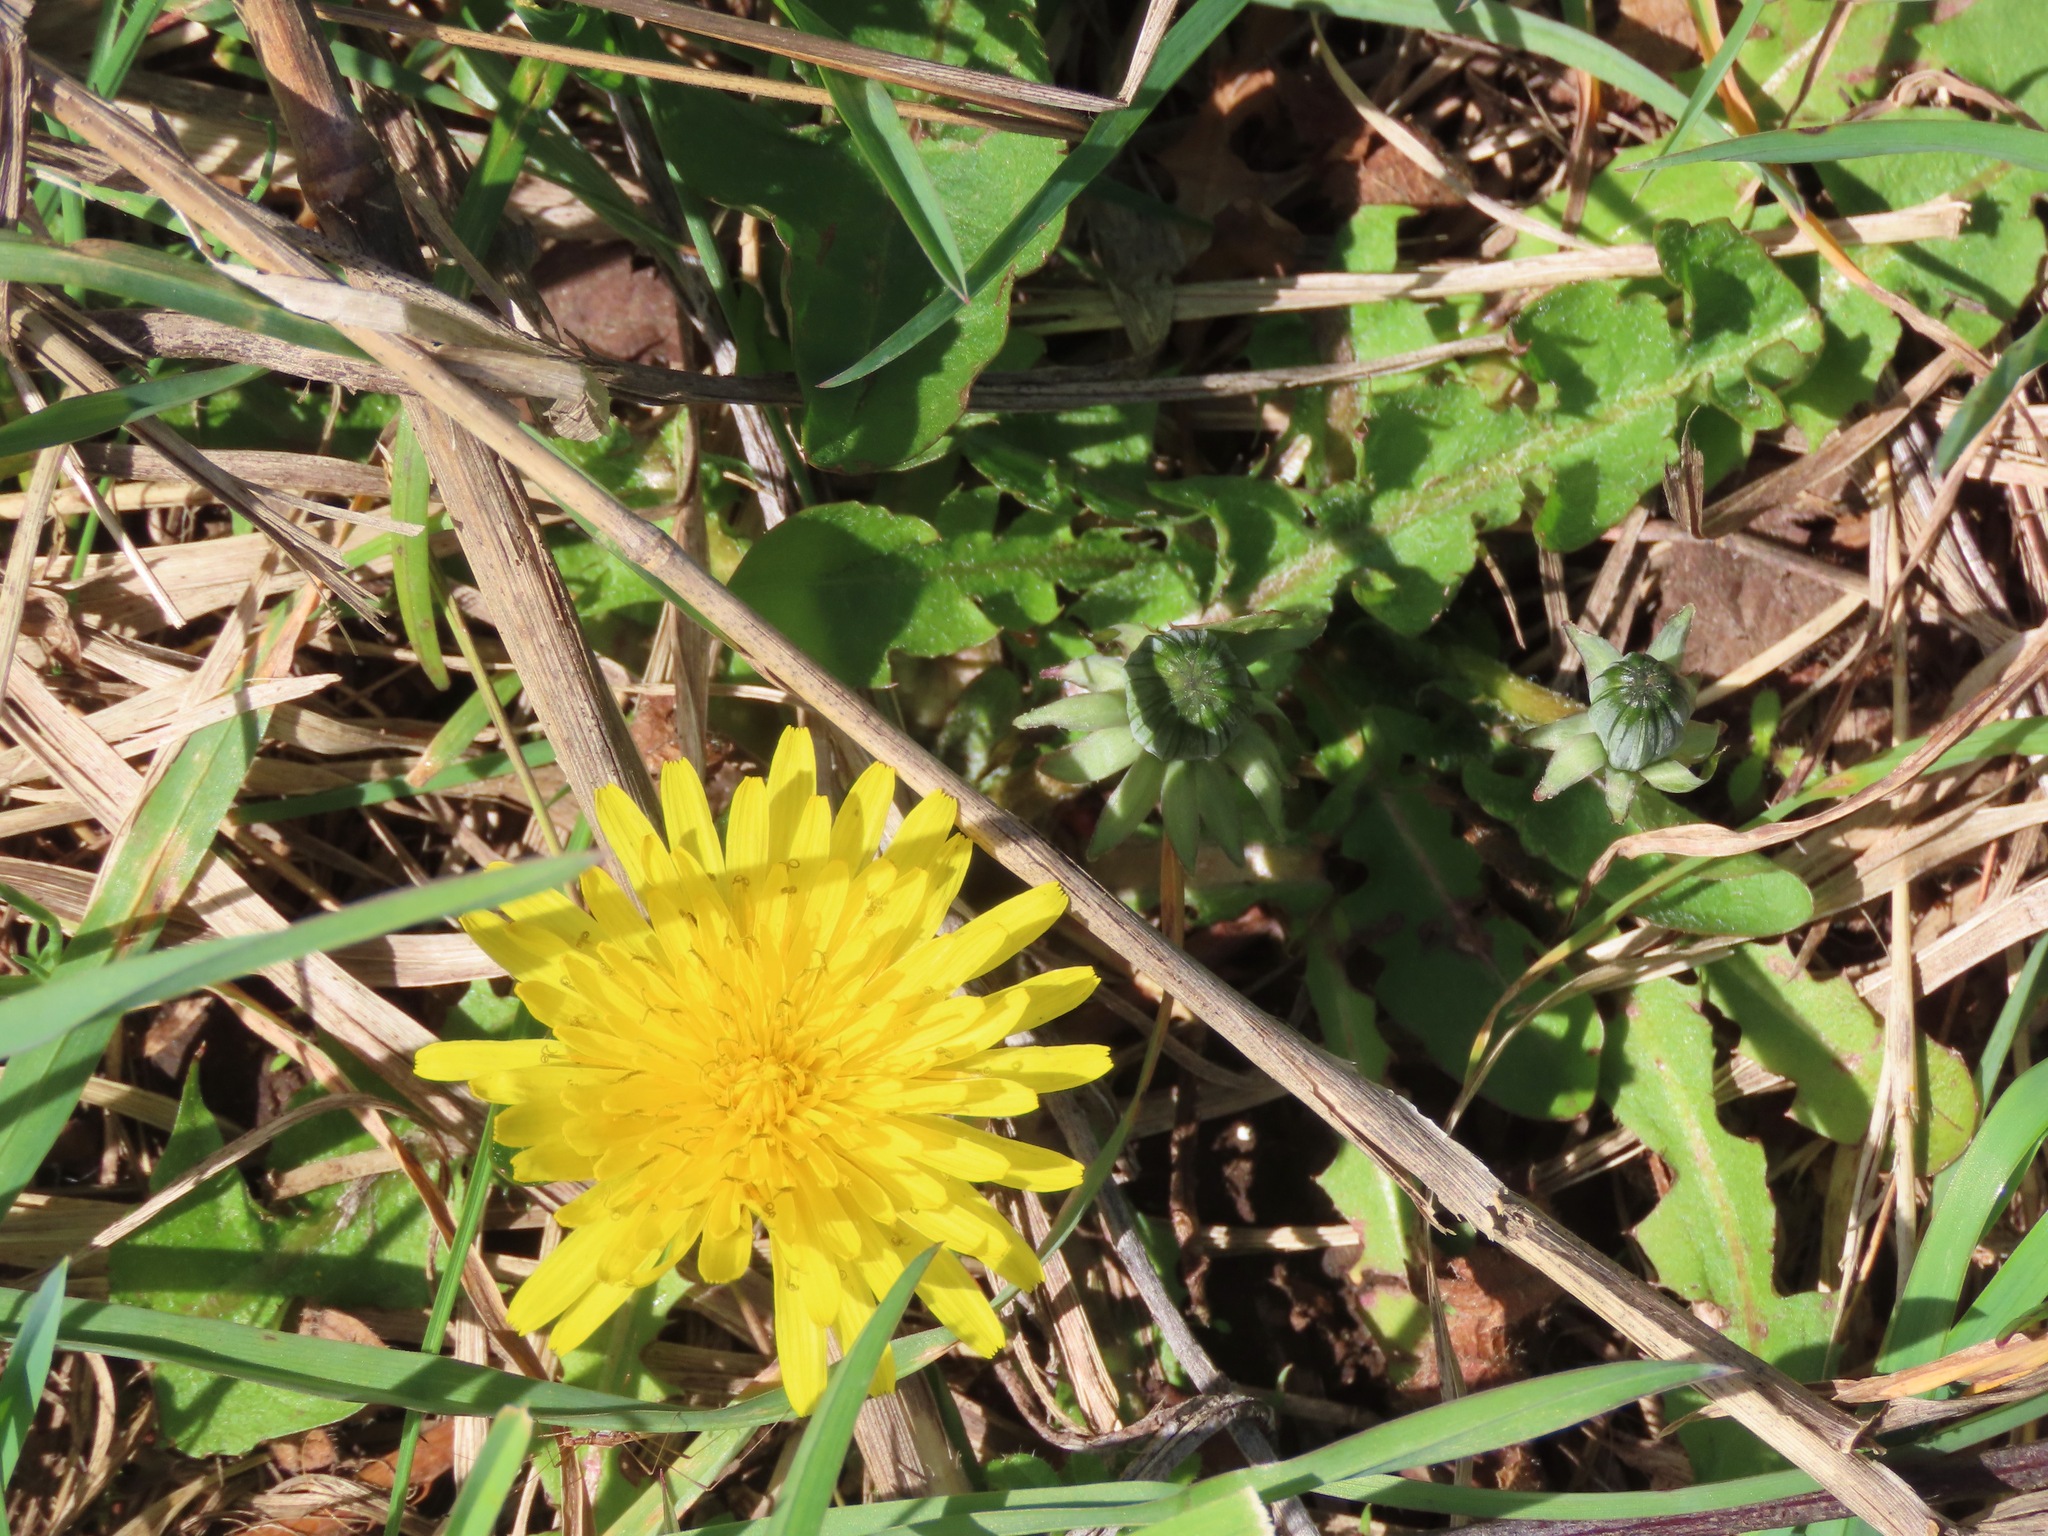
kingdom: Plantae
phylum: Tracheophyta
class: Magnoliopsida
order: Asterales
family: Asteraceae
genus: Taraxacum
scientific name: Taraxacum officinale
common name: Common dandelion
